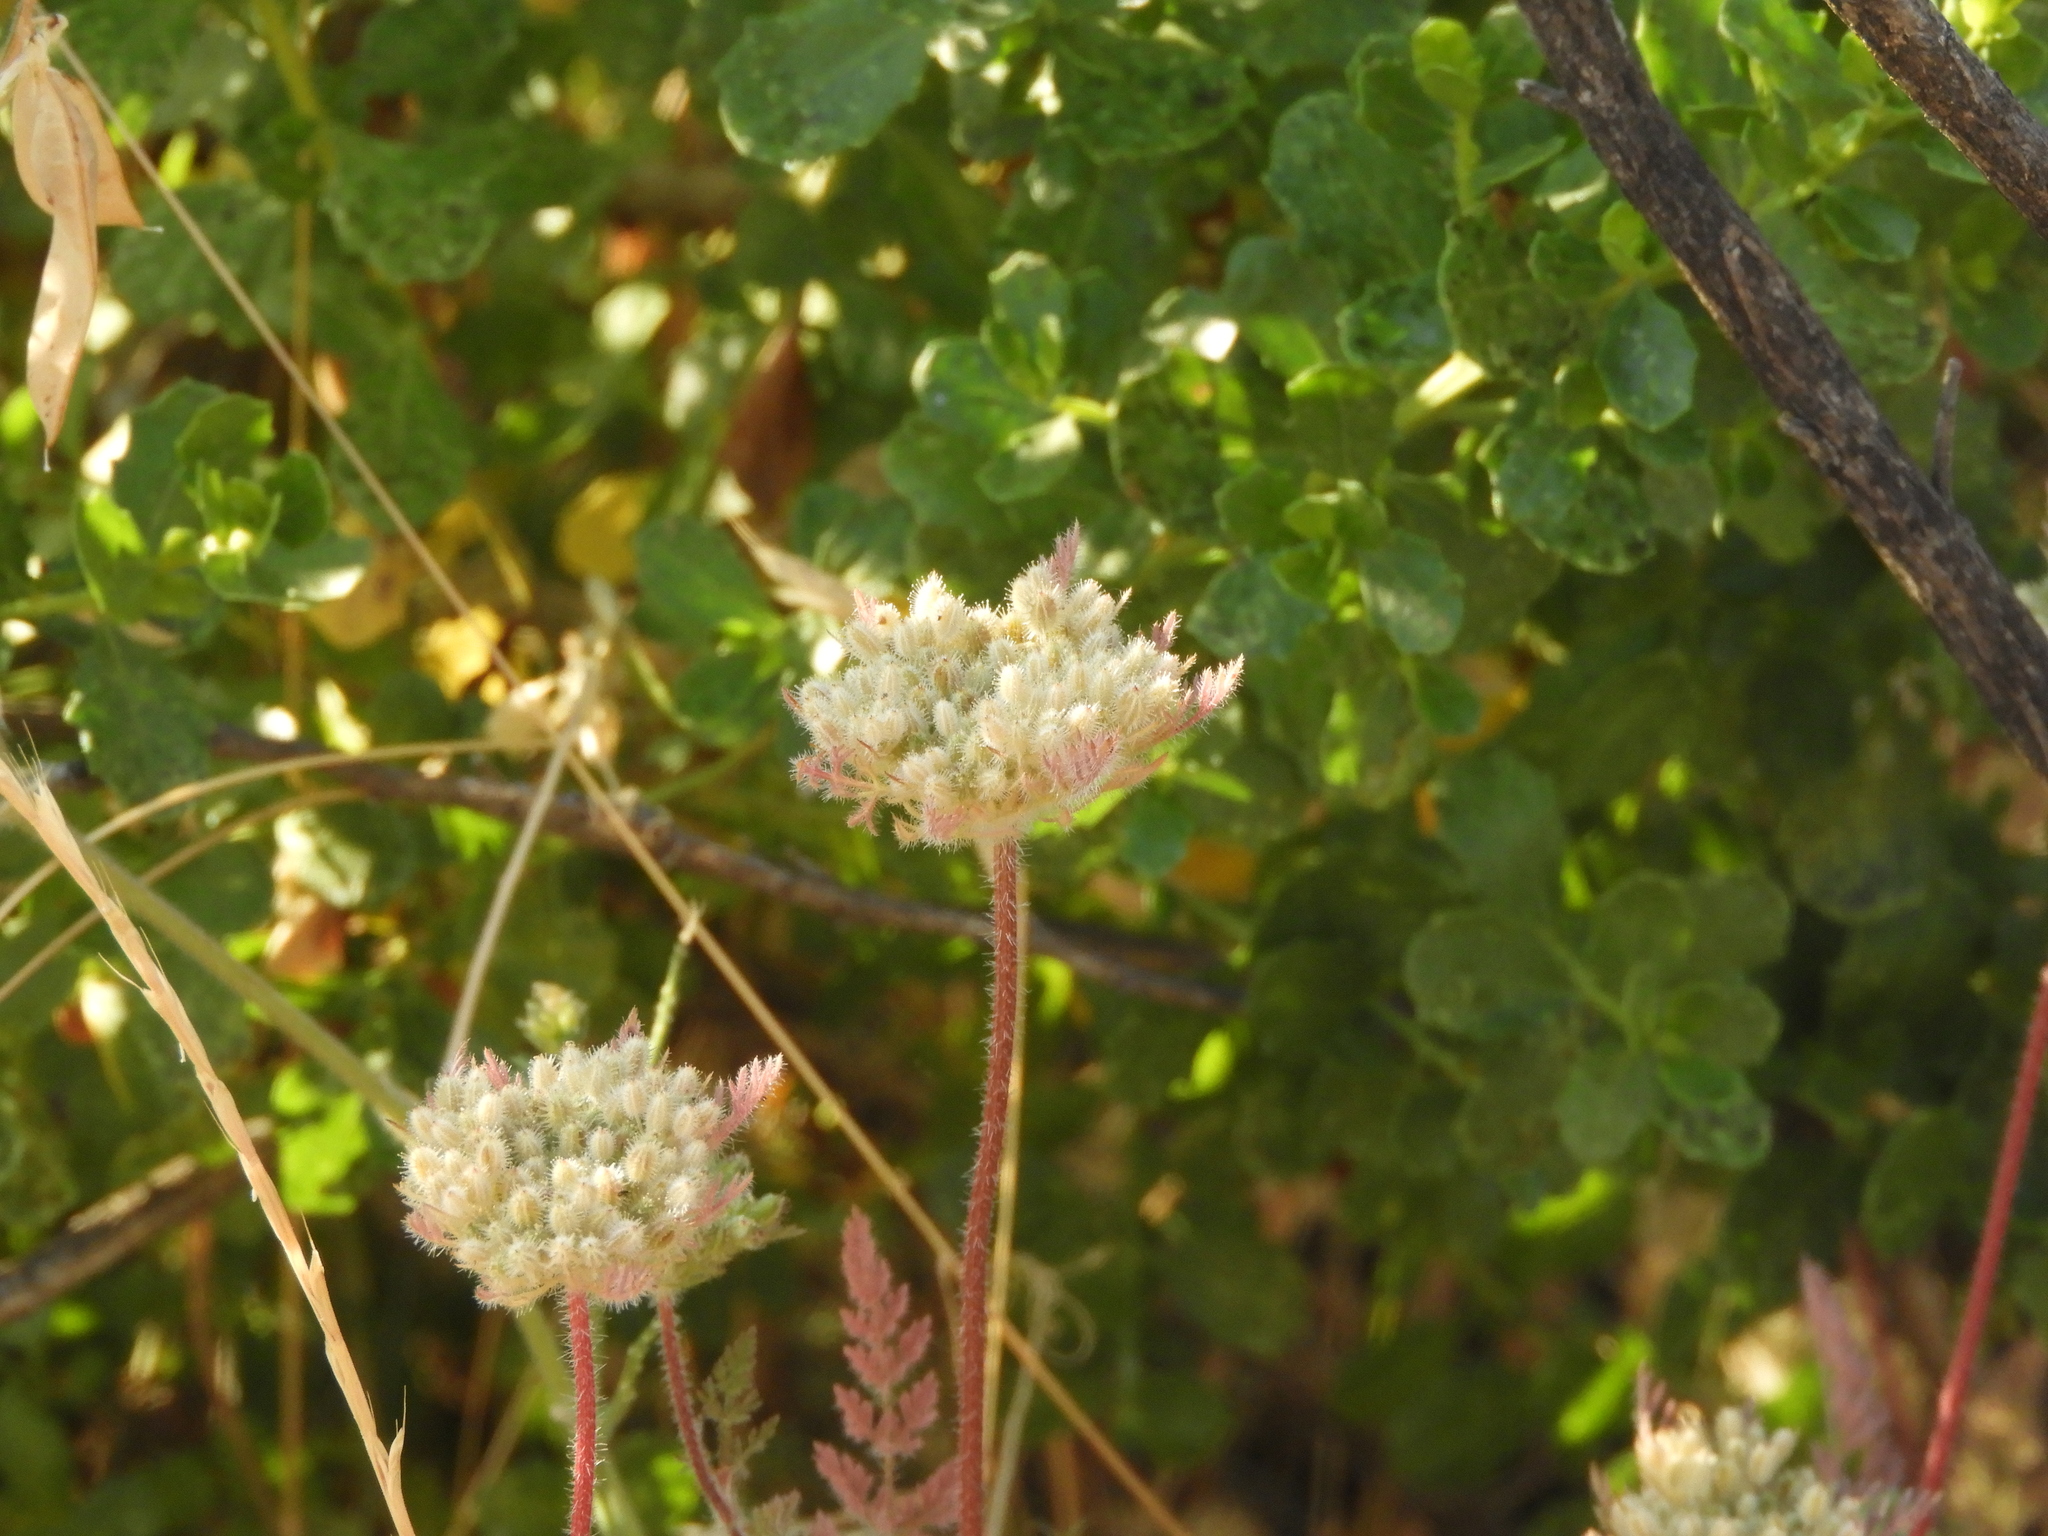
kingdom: Plantae
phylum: Tracheophyta
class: Magnoliopsida
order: Apiales
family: Apiaceae
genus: Daucus
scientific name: Daucus pusillus
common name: Southwest wild carrot
